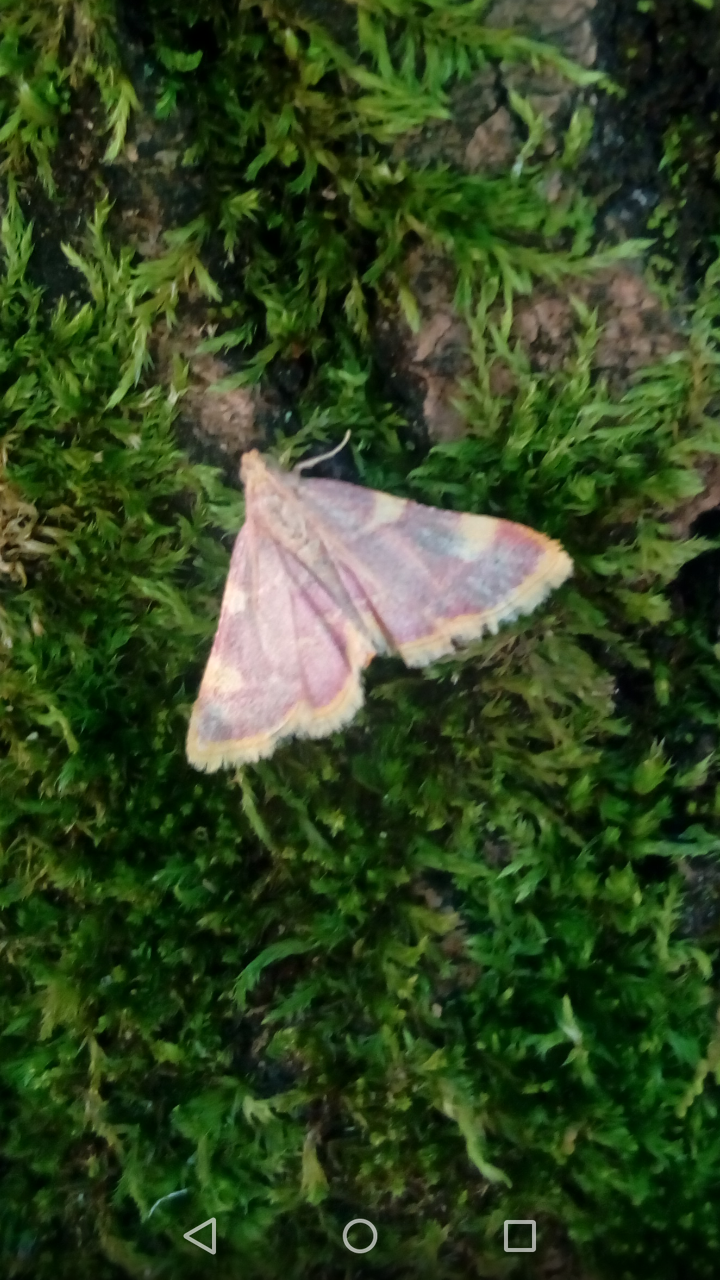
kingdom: Animalia
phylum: Arthropoda
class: Insecta
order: Lepidoptera
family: Pyralidae
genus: Hypsopygia
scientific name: Hypsopygia costalis
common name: Gold triangle
